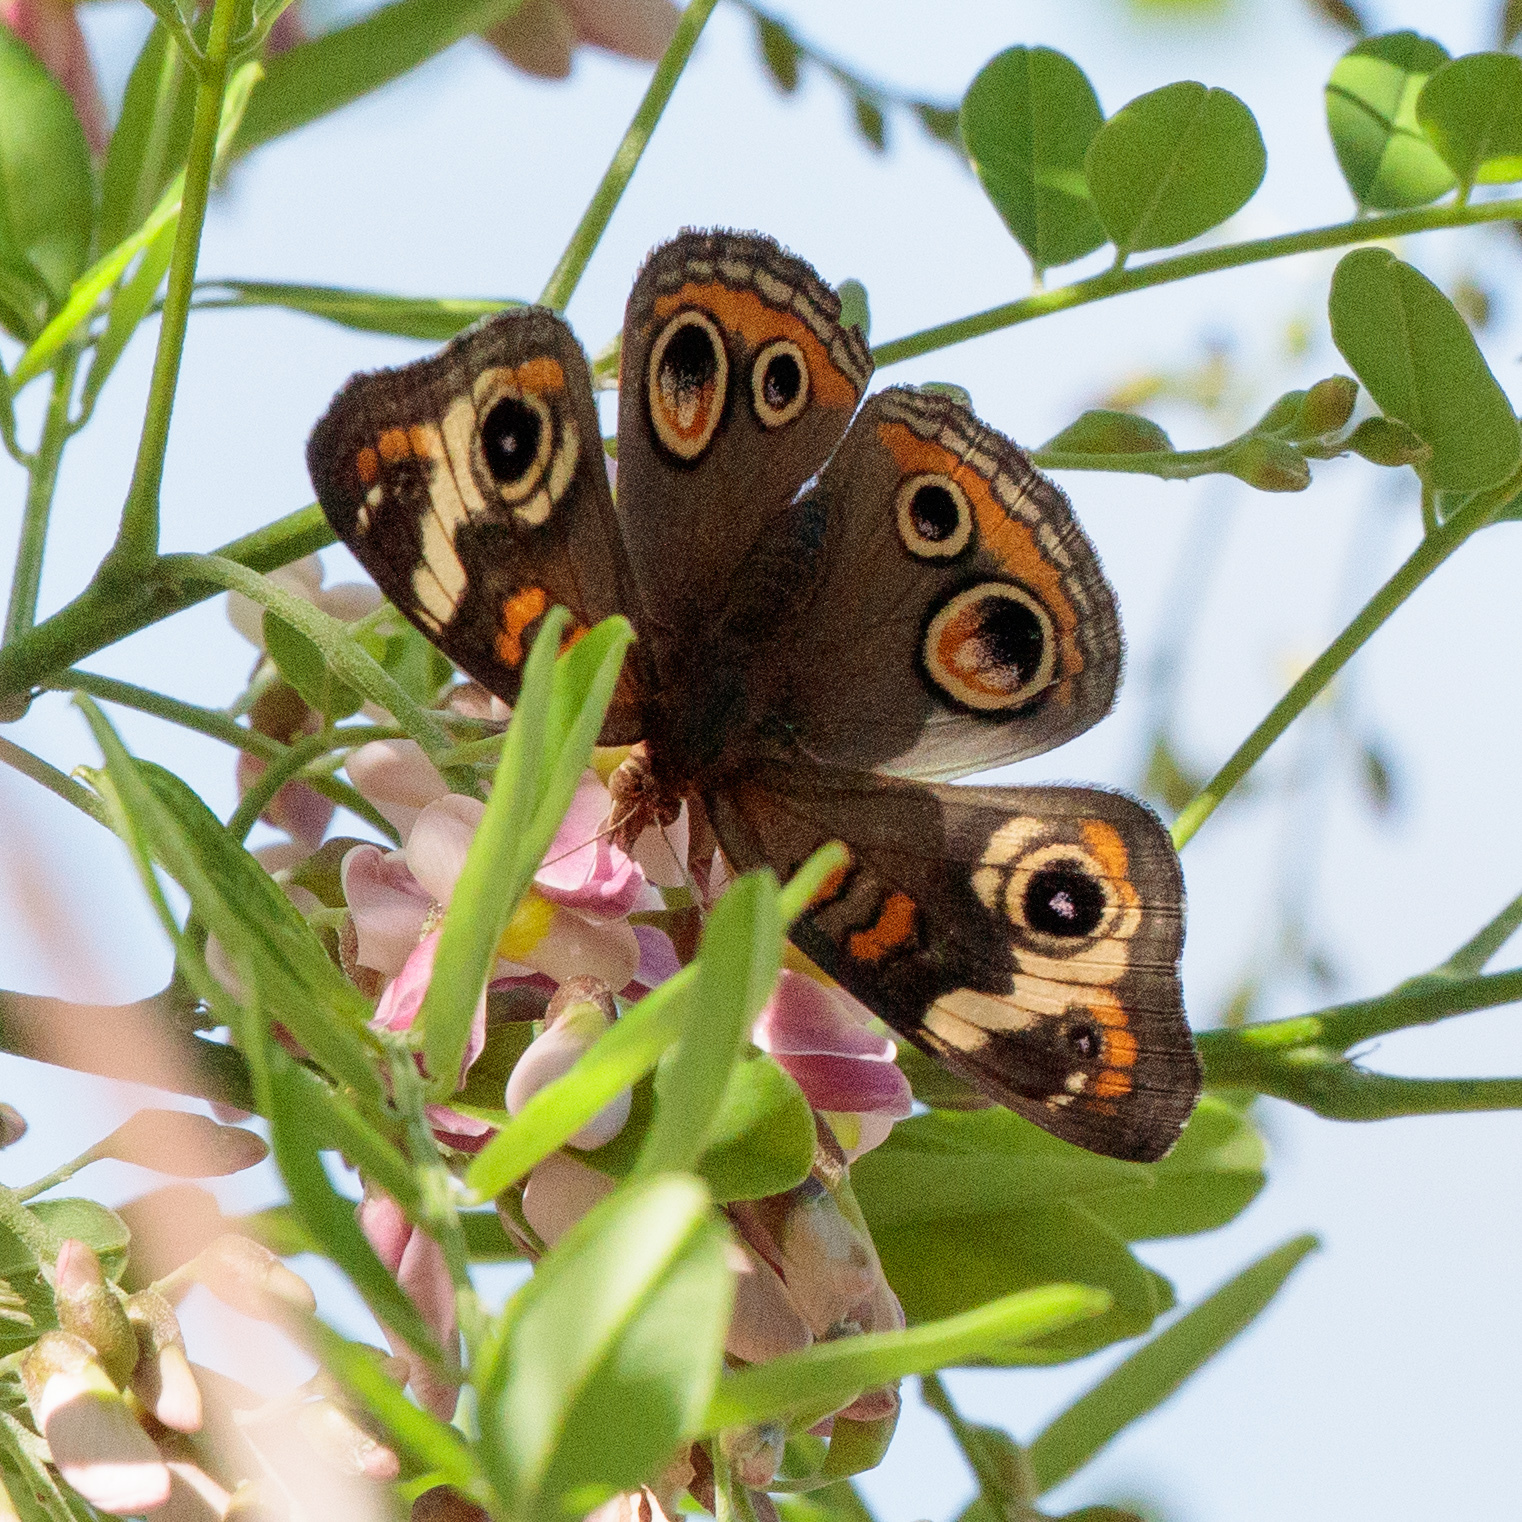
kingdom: Animalia
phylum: Arthropoda
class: Insecta
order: Lepidoptera
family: Nymphalidae
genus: Junonia
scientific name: Junonia coenia
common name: Common buckeye
